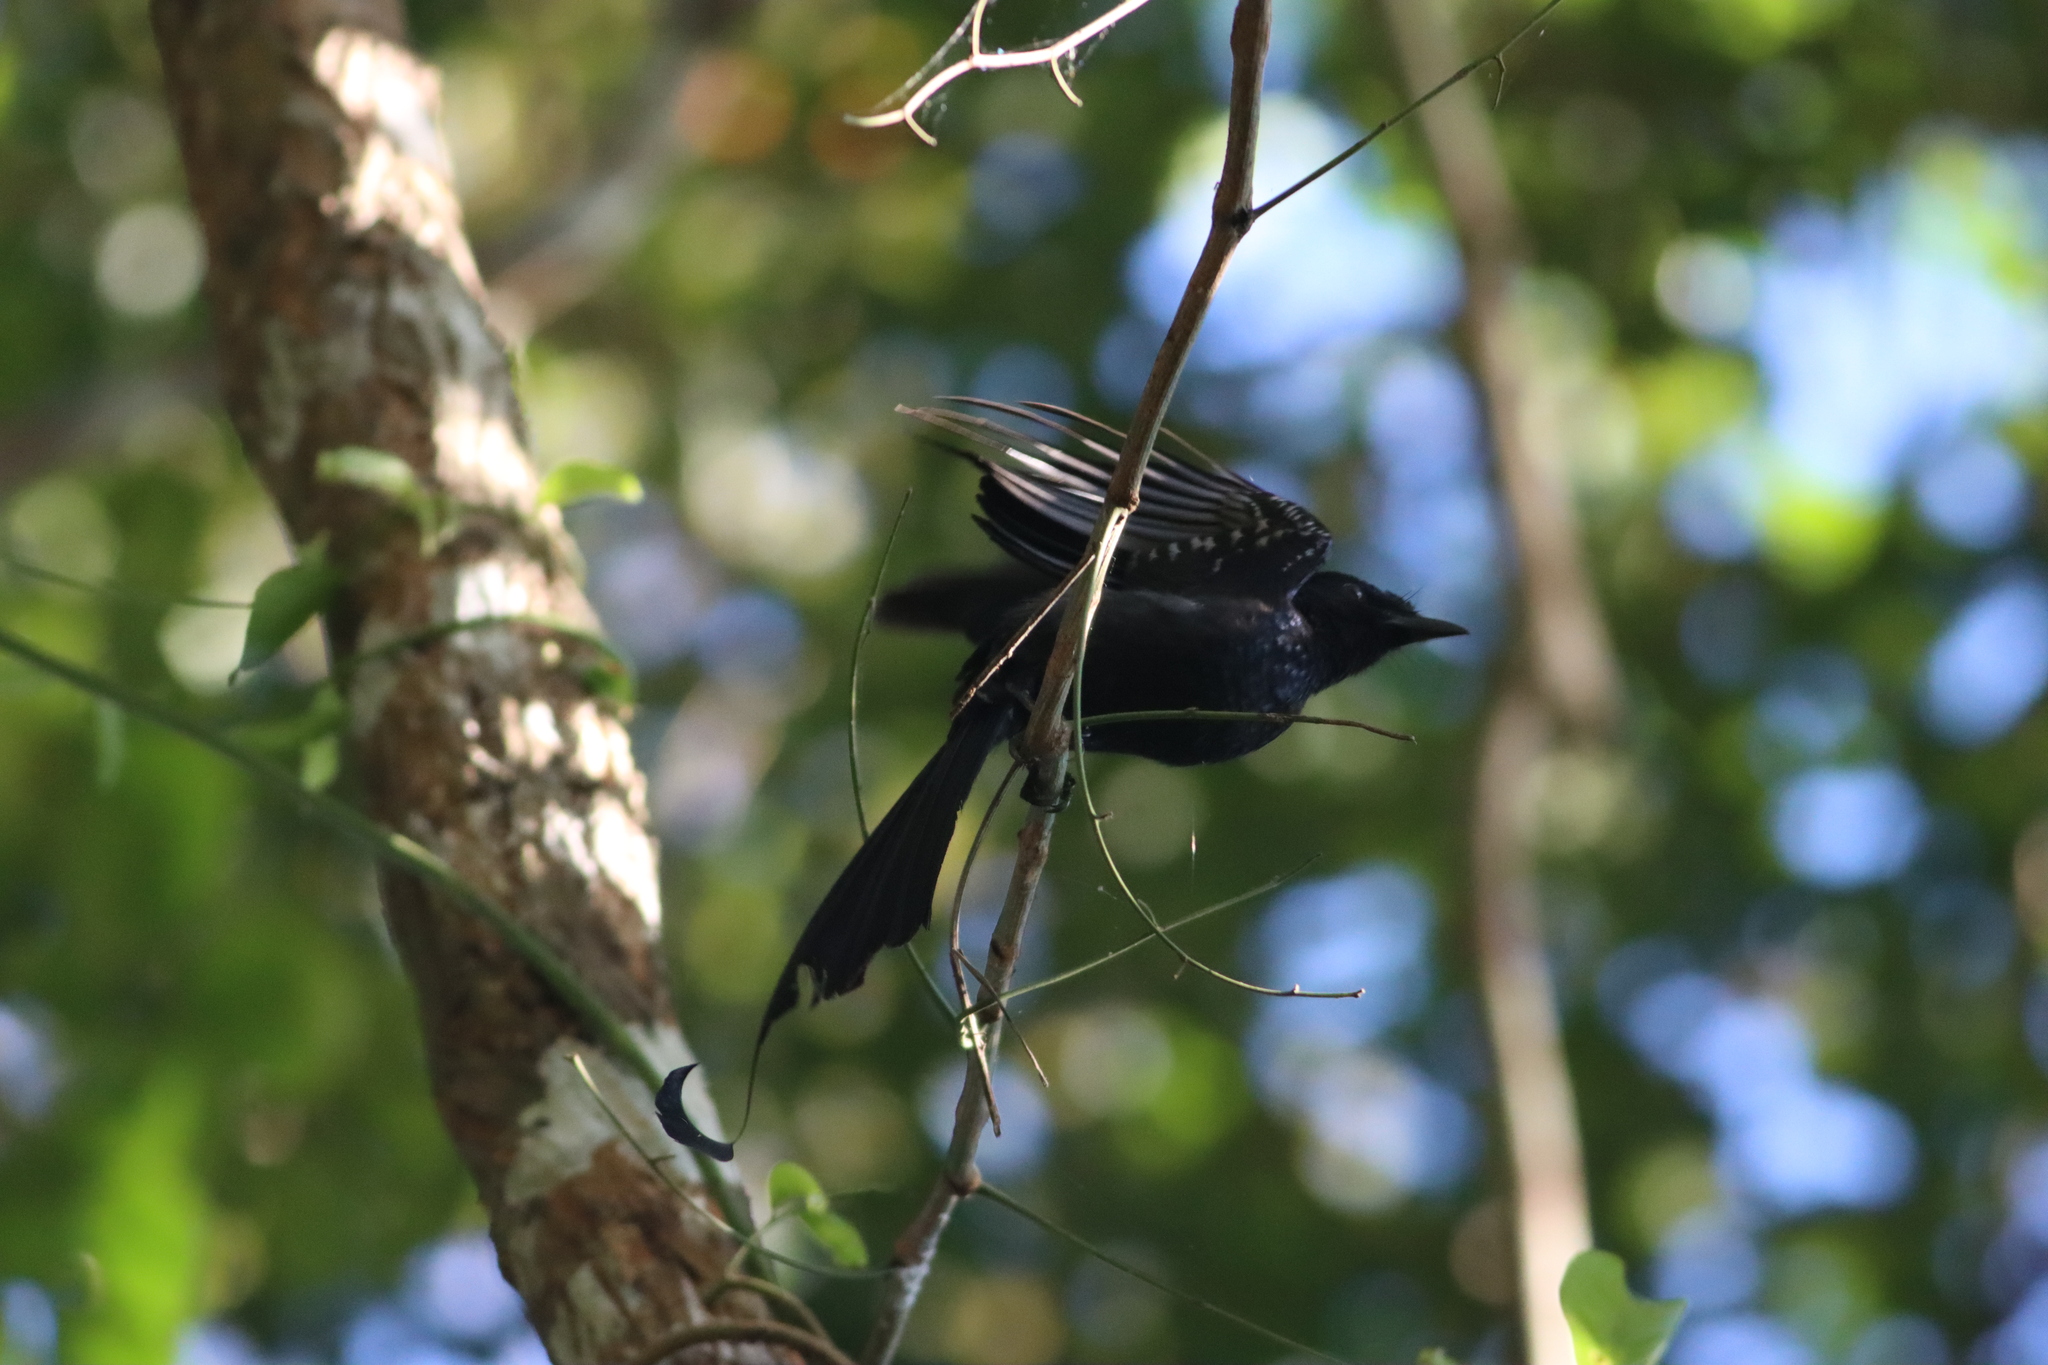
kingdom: Animalia
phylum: Chordata
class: Aves
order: Passeriformes
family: Dicruridae
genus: Dicrurus
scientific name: Dicrurus paradiseus
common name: Greater racket-tailed drongo
